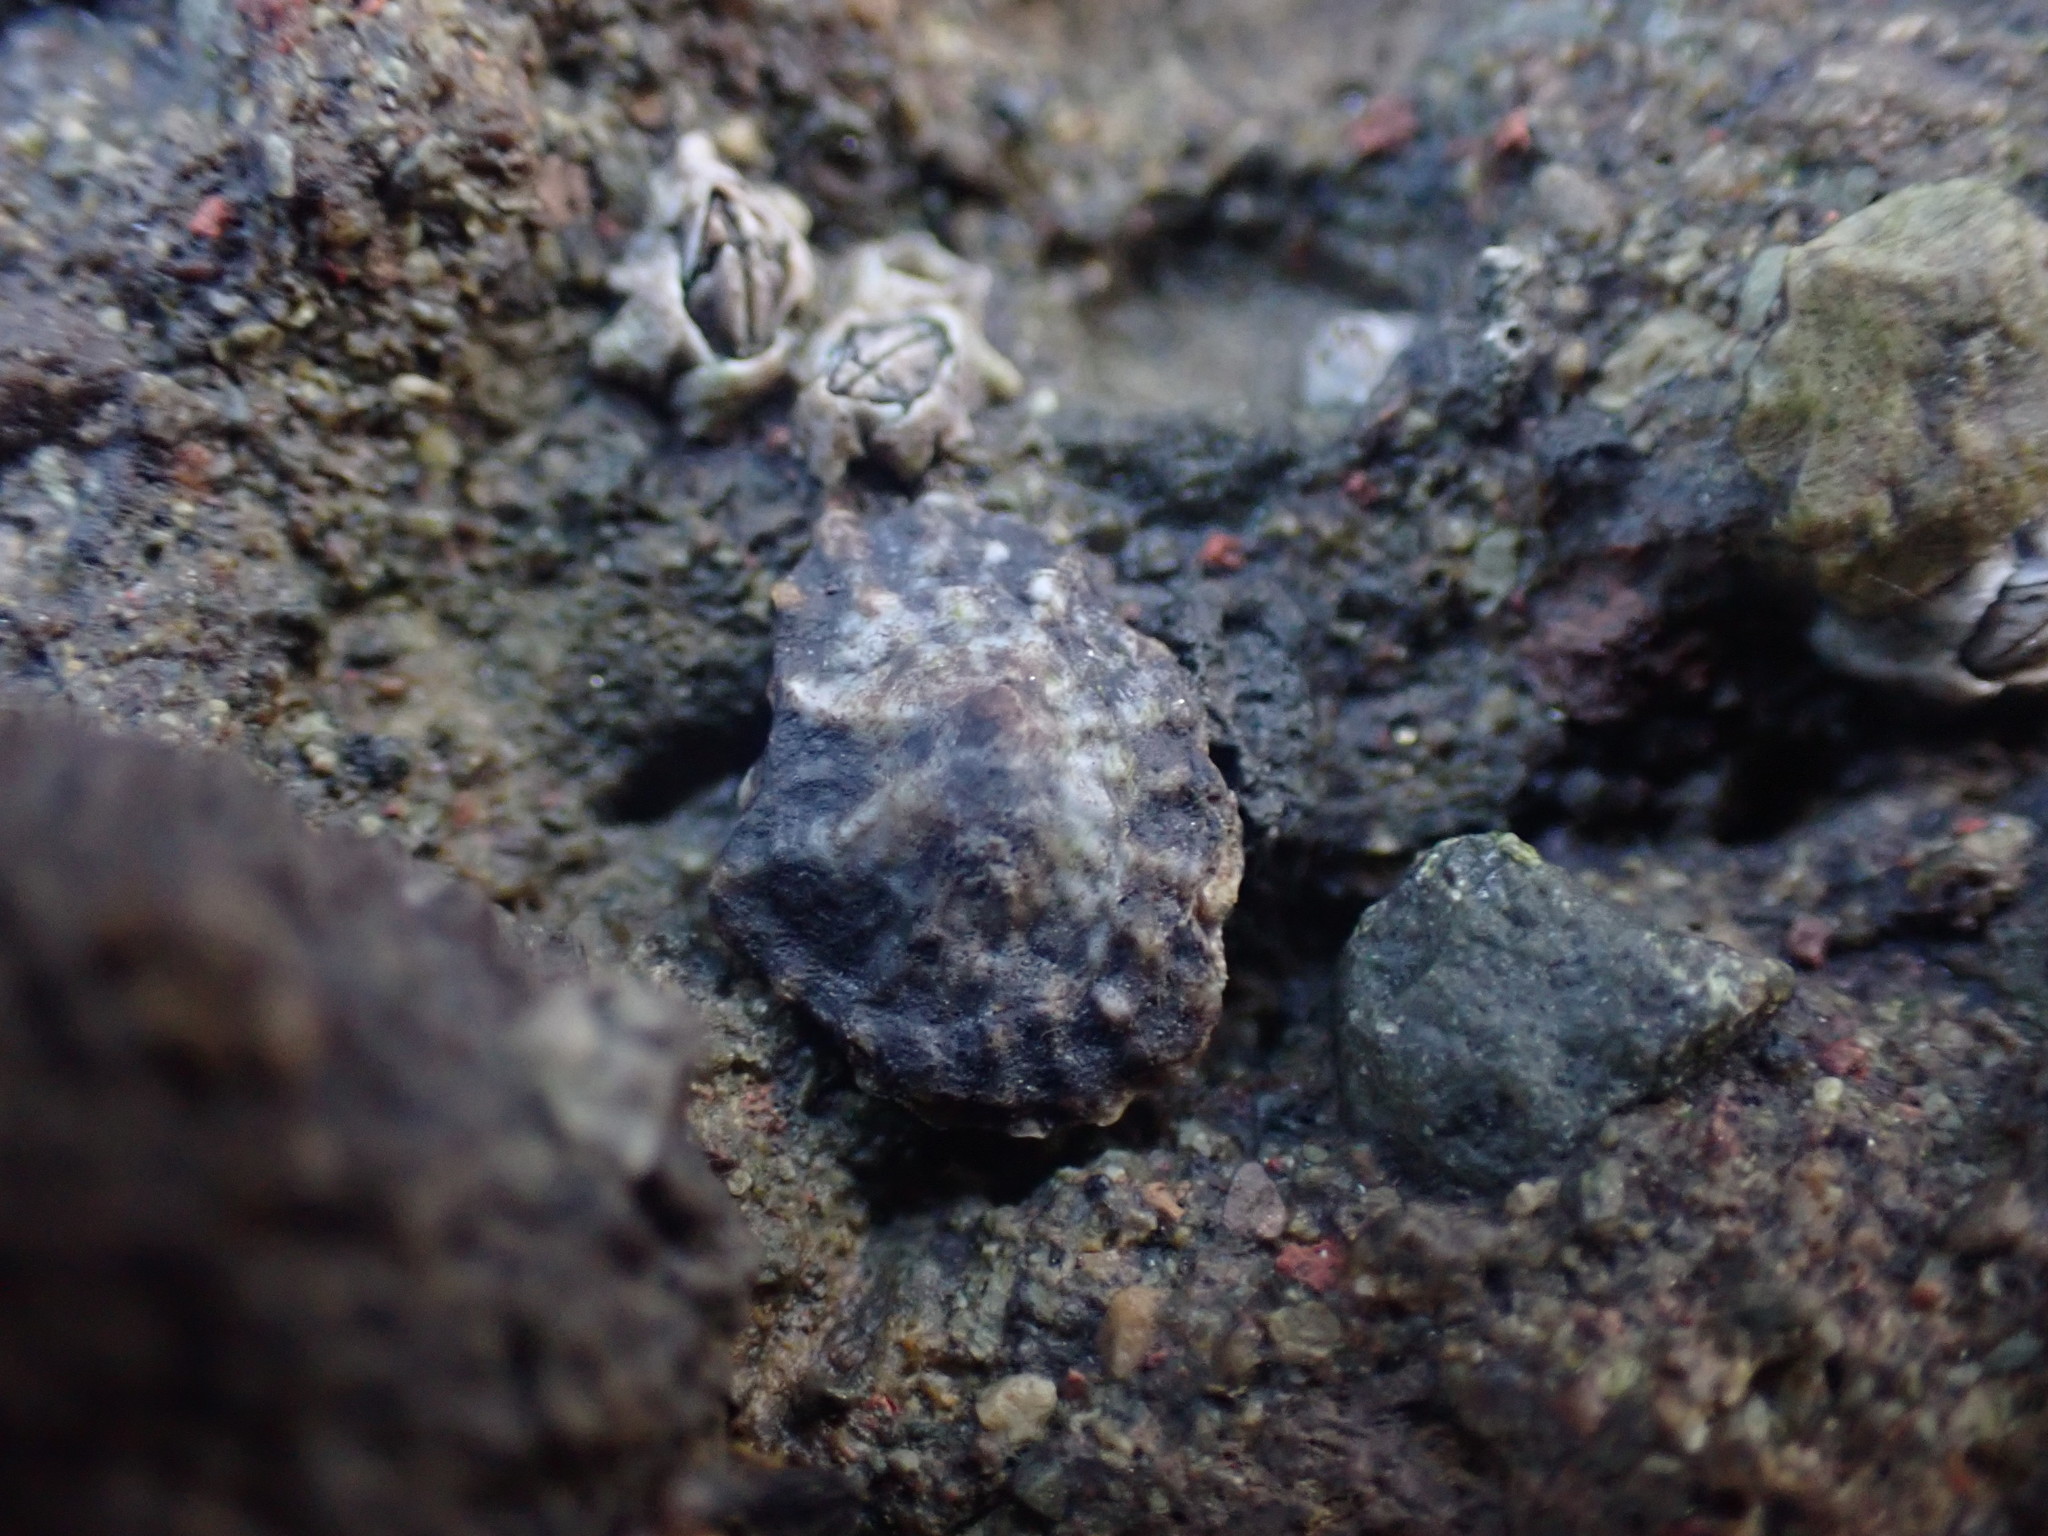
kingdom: Animalia
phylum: Mollusca
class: Gastropoda
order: Siphonariida
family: Siphonariidae
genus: Siphonaria
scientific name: Siphonaria australis
